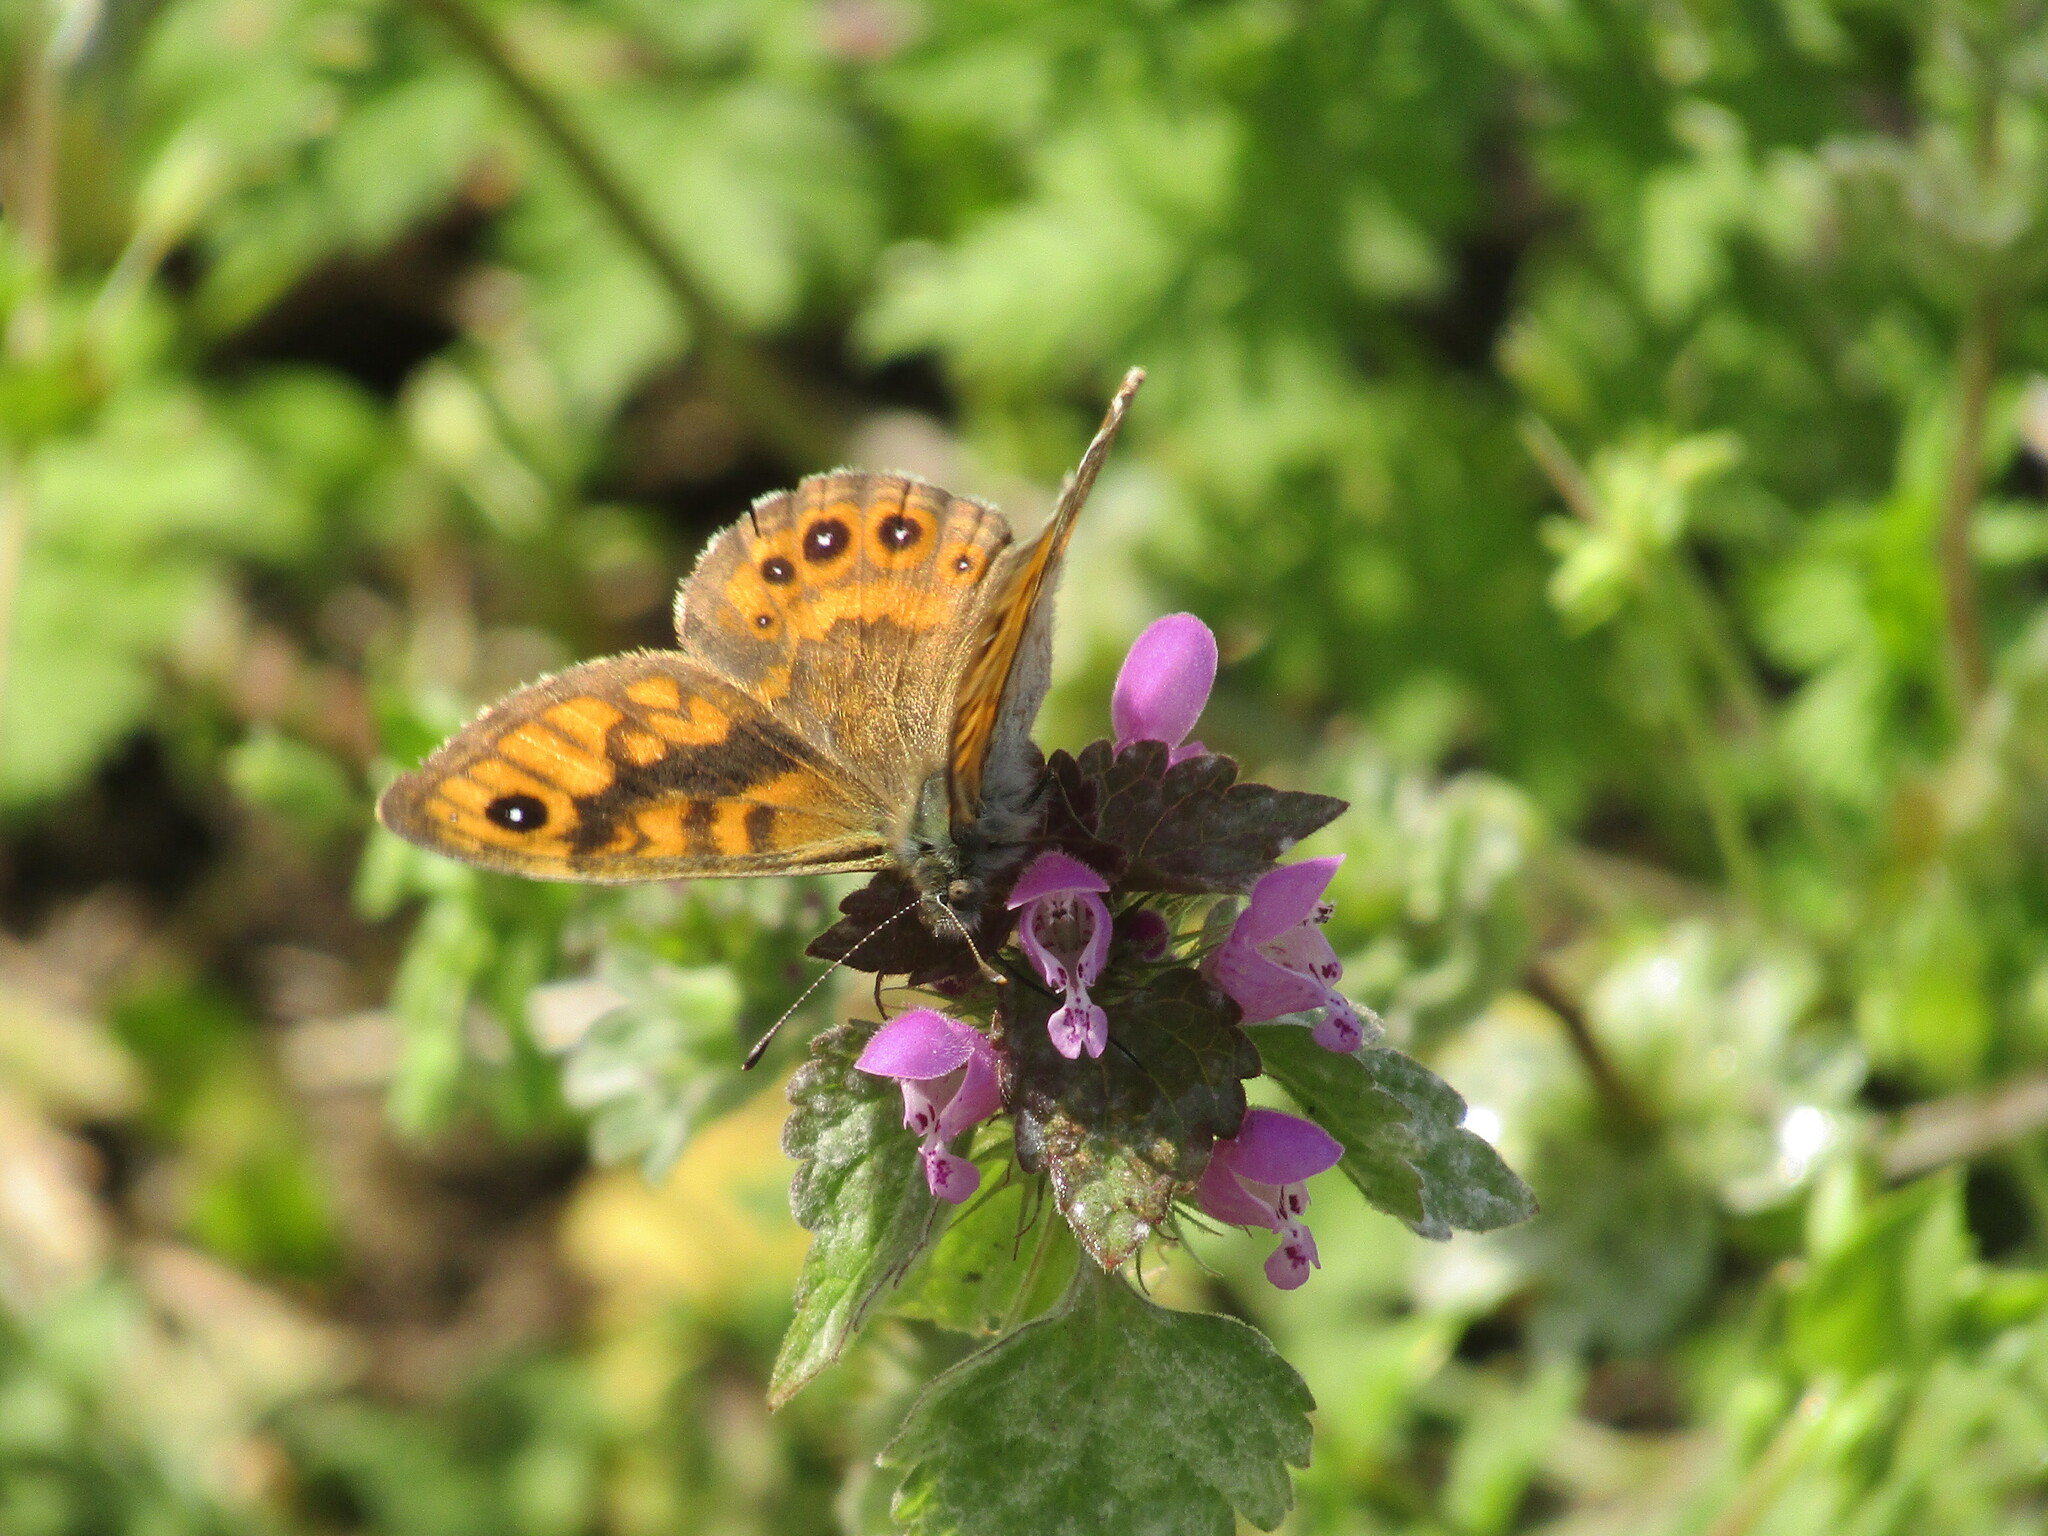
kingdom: Animalia
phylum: Arthropoda
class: Insecta
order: Lepidoptera
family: Nymphalidae
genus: Pararge
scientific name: Pararge Lasiommata megera
